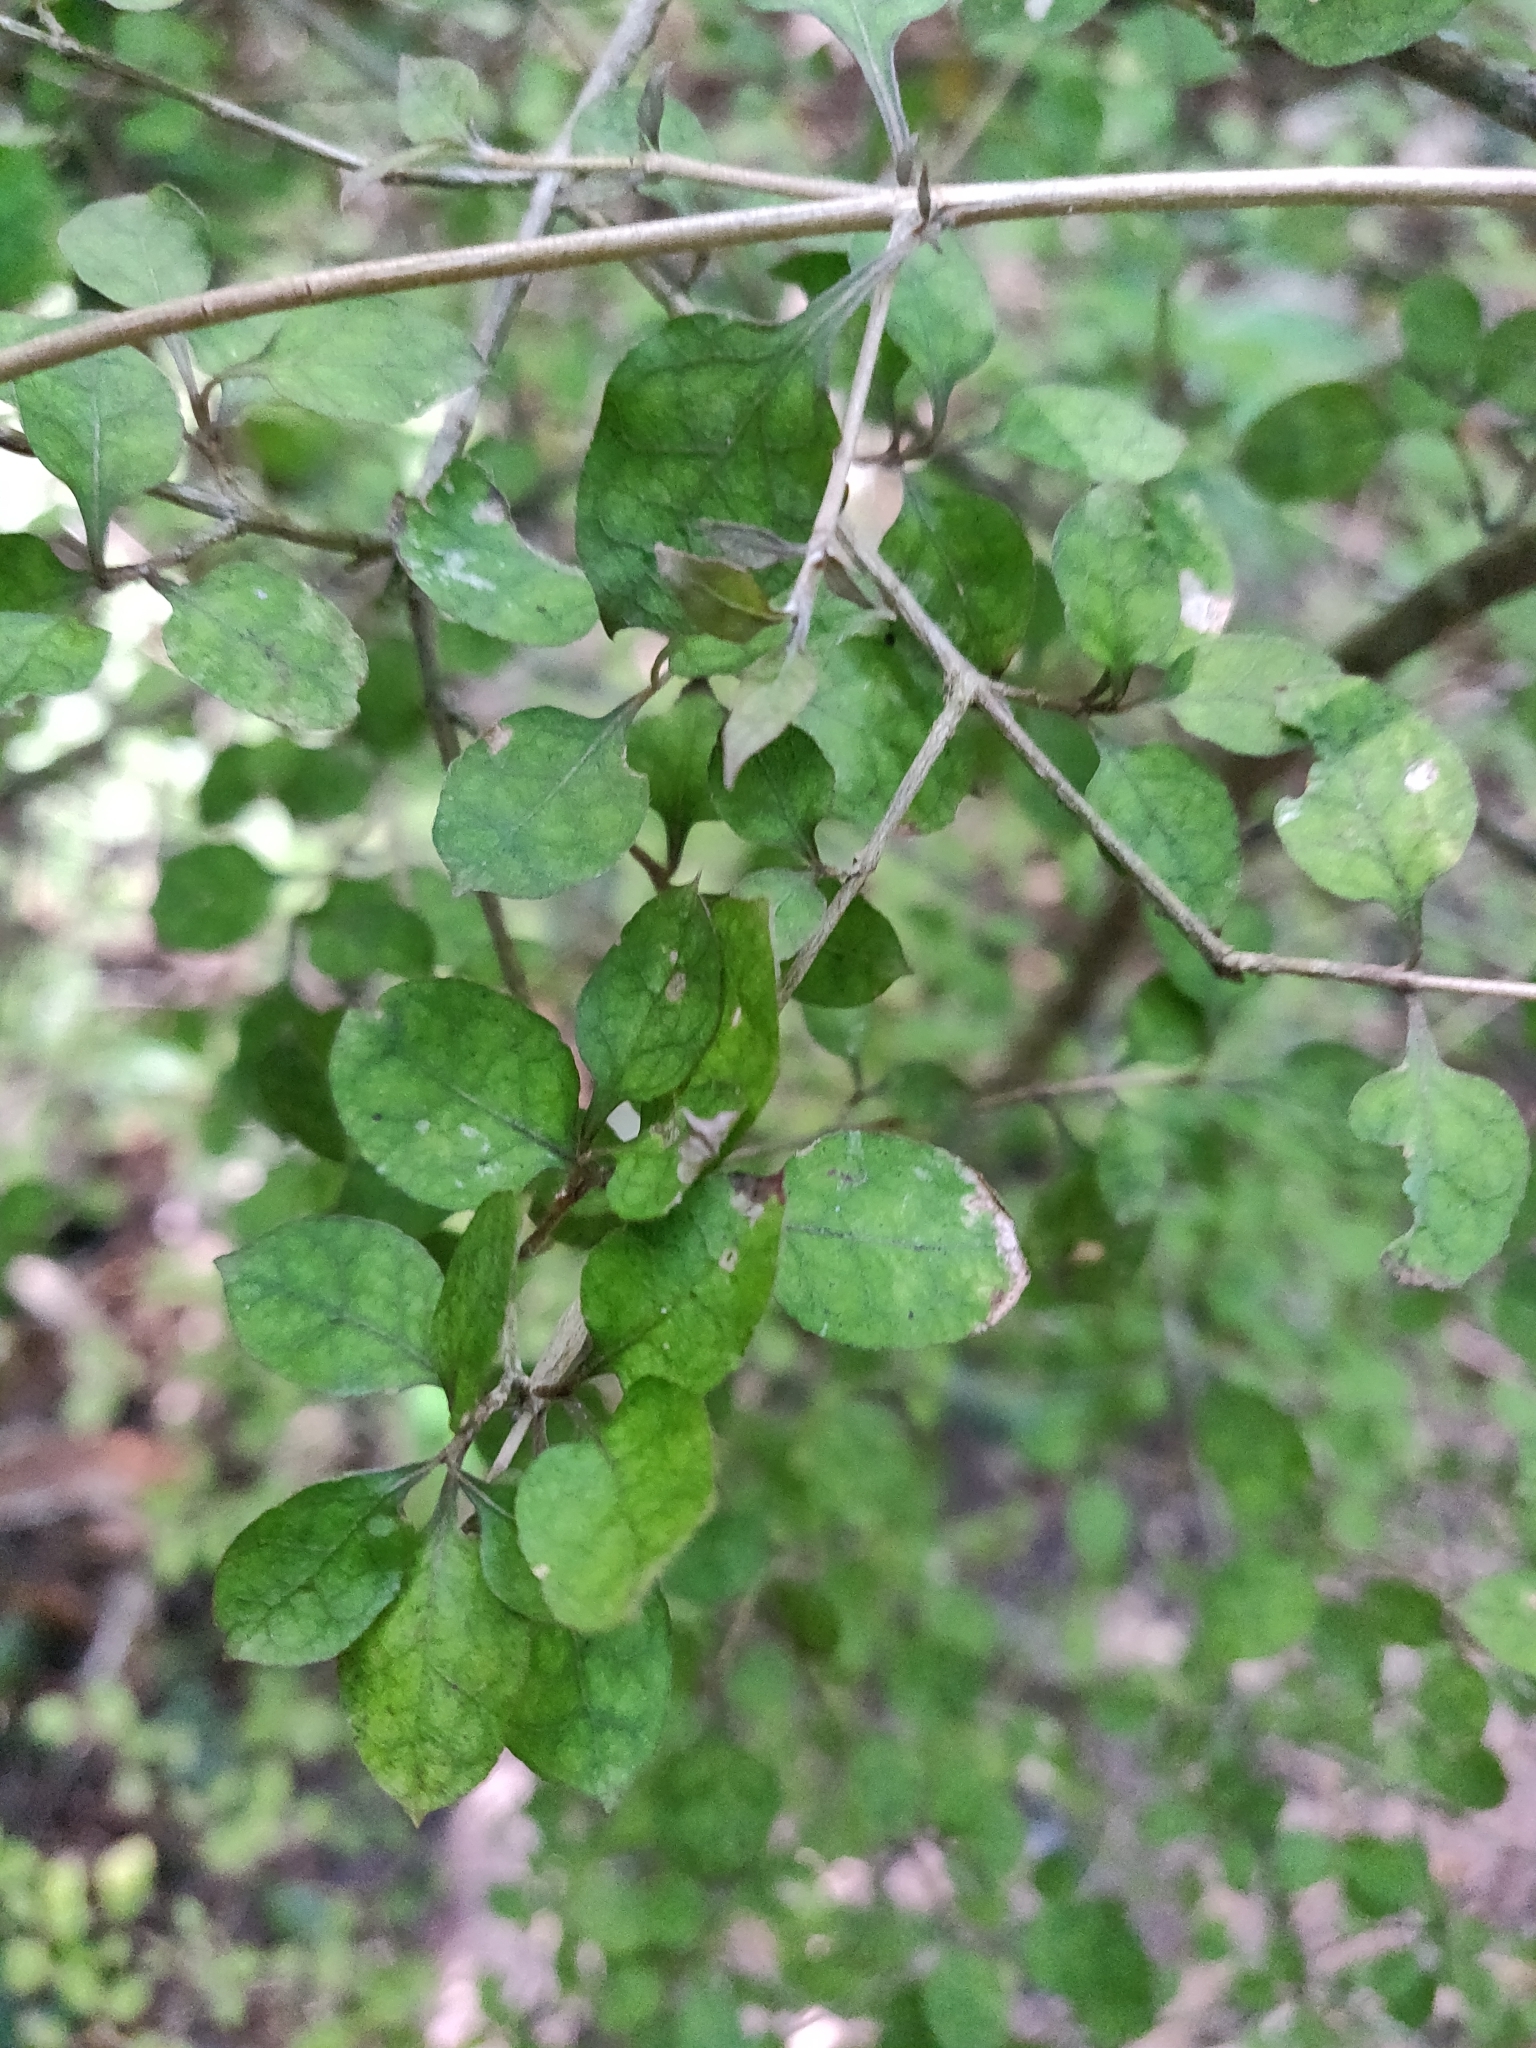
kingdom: Plantae
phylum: Tracheophyta
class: Magnoliopsida
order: Gentianales
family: Rubiaceae
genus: Coprosma
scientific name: Coprosma areolata
